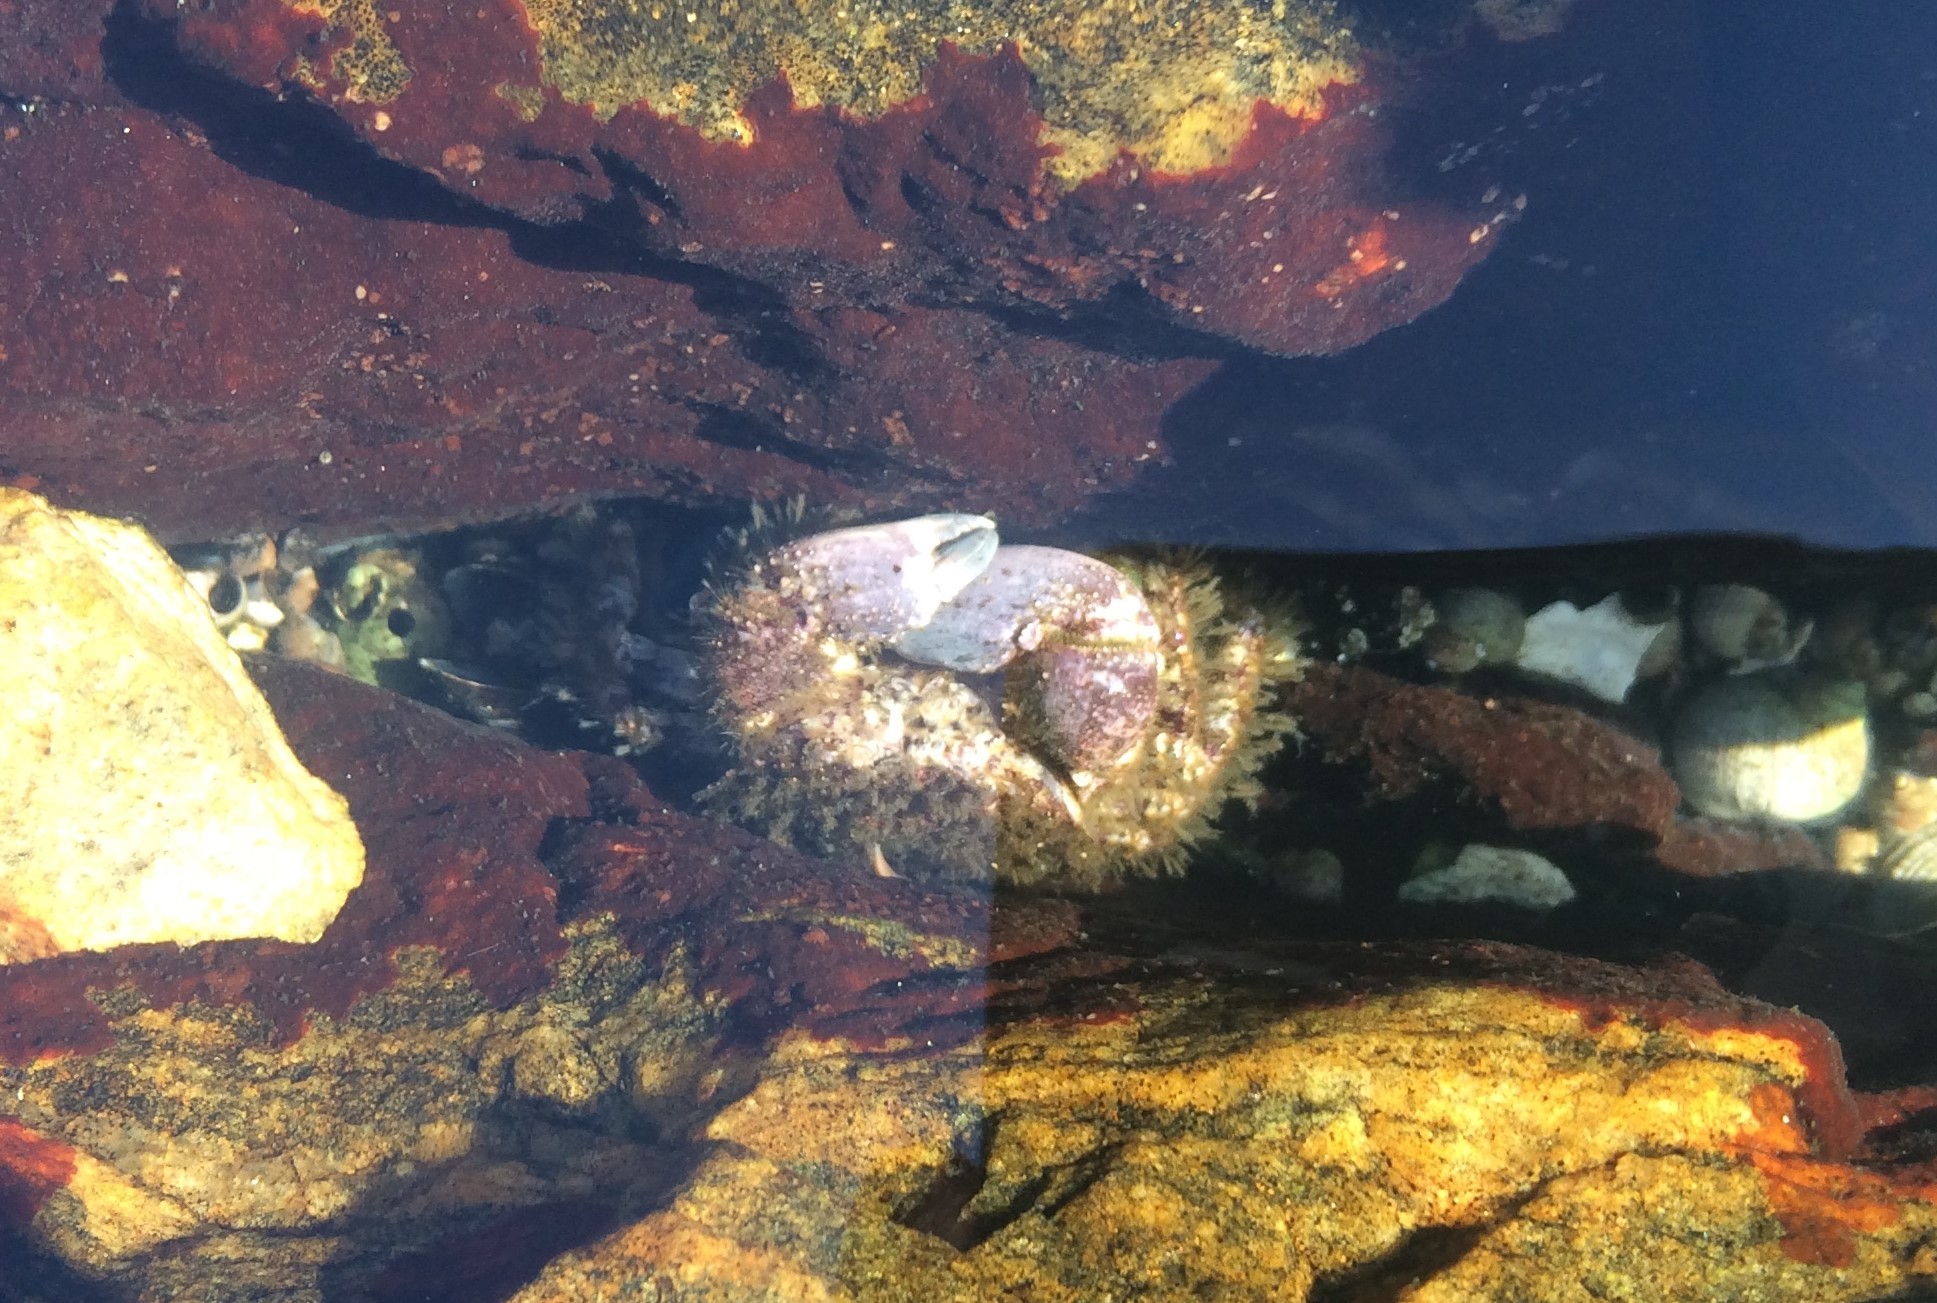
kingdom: Animalia
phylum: Arthropoda
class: Malacostraca
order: Decapoda
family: Pilumnidae
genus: Pilumnus
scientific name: Pilumnus hirtellus
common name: Hairy crab
